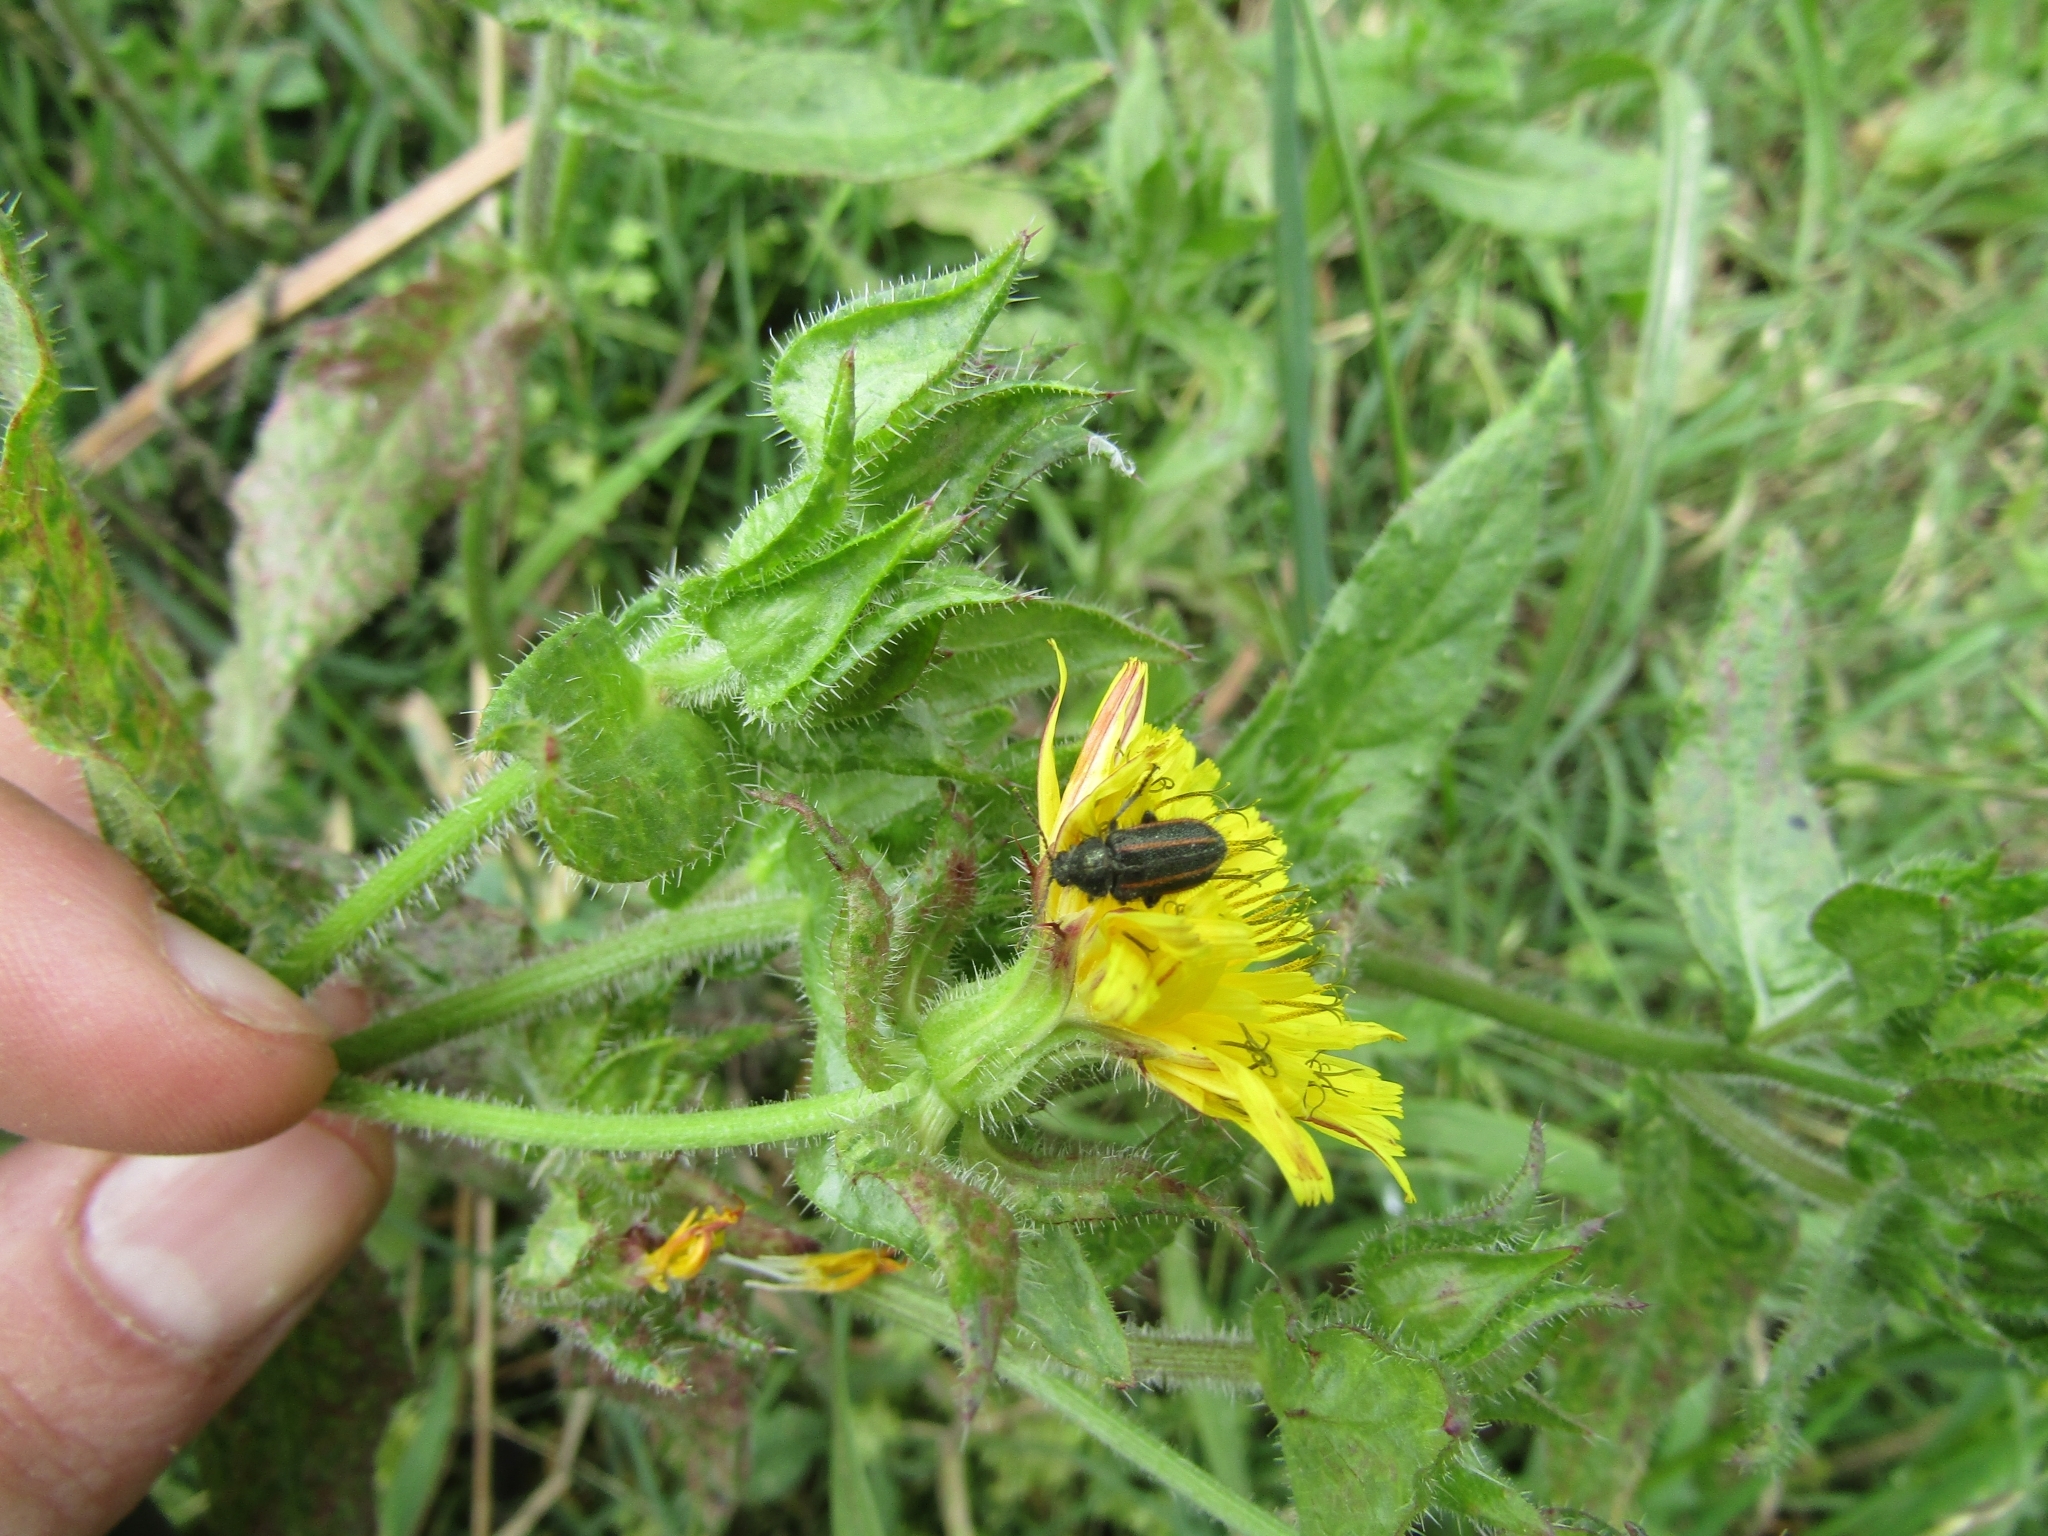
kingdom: Animalia
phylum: Arthropoda
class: Insecta
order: Coleoptera
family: Melyridae
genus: Astylus
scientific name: Astylus
